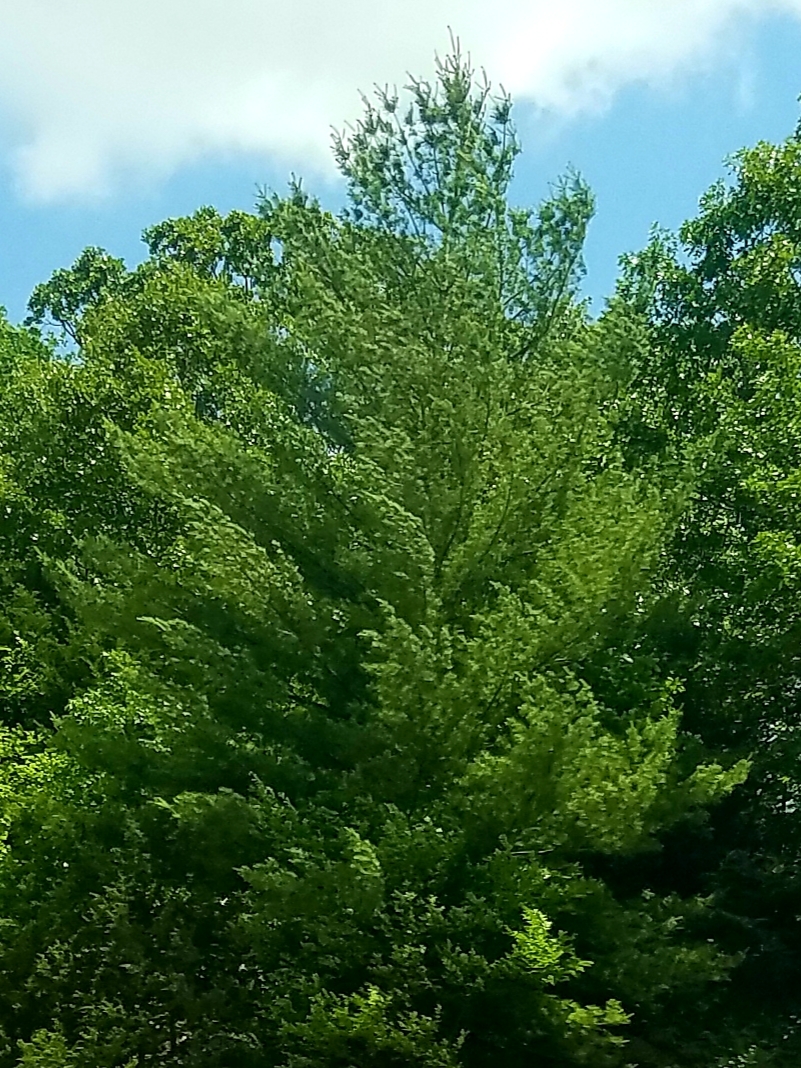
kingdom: Plantae
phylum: Tracheophyta
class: Pinopsida
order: Pinales
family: Pinaceae
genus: Pinus
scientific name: Pinus strobus
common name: Weymouth pine
